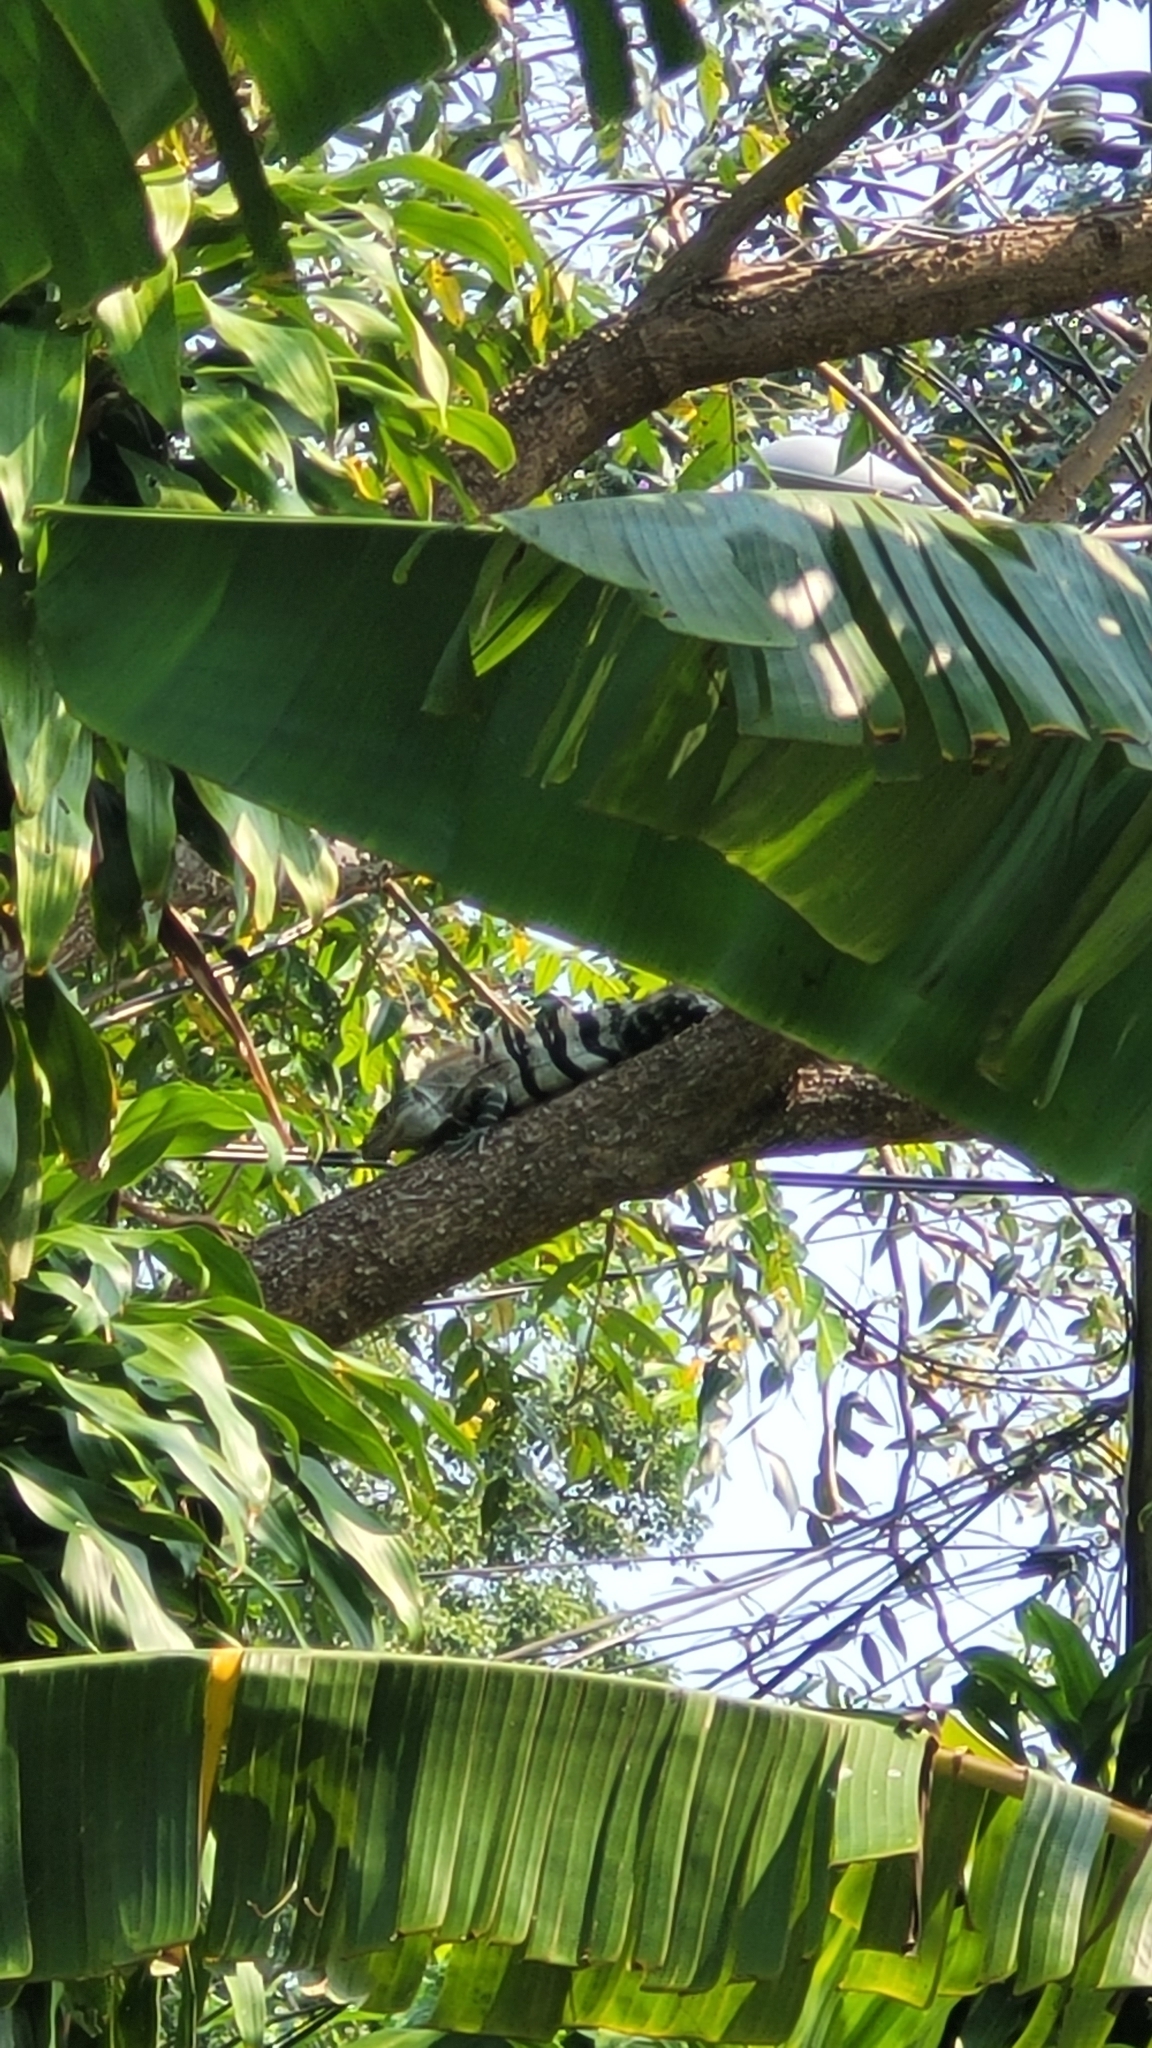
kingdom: Animalia
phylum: Chordata
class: Squamata
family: Iguanidae
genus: Ctenosaura
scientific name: Ctenosaura similis
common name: Black spiny-tailed iguana
